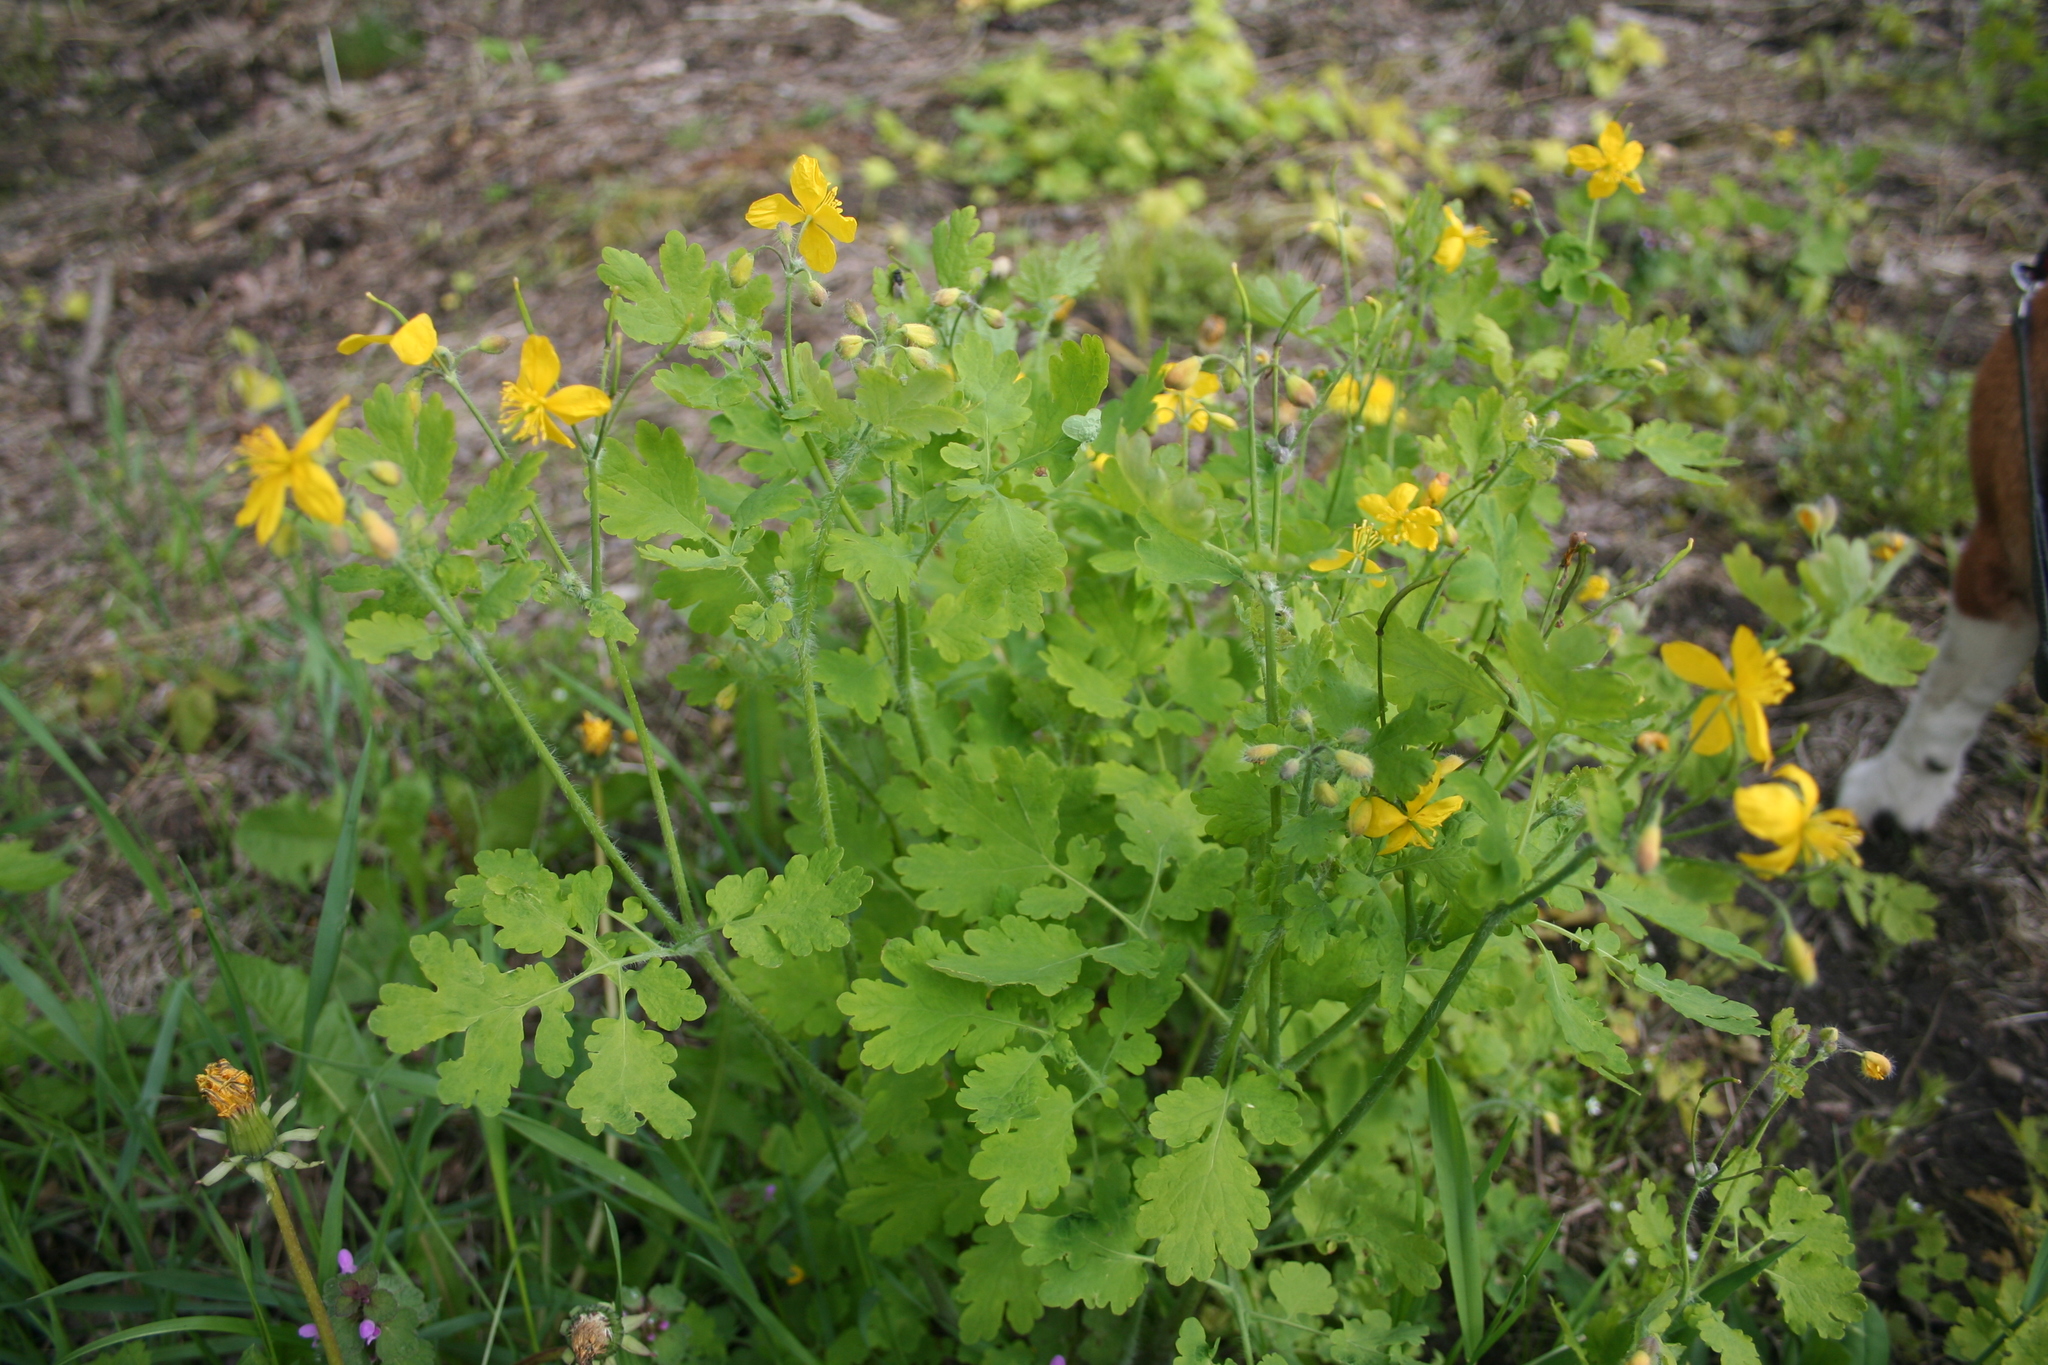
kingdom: Plantae
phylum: Tracheophyta
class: Magnoliopsida
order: Ranunculales
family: Papaveraceae
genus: Chelidonium
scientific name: Chelidonium majus
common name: Greater celandine
